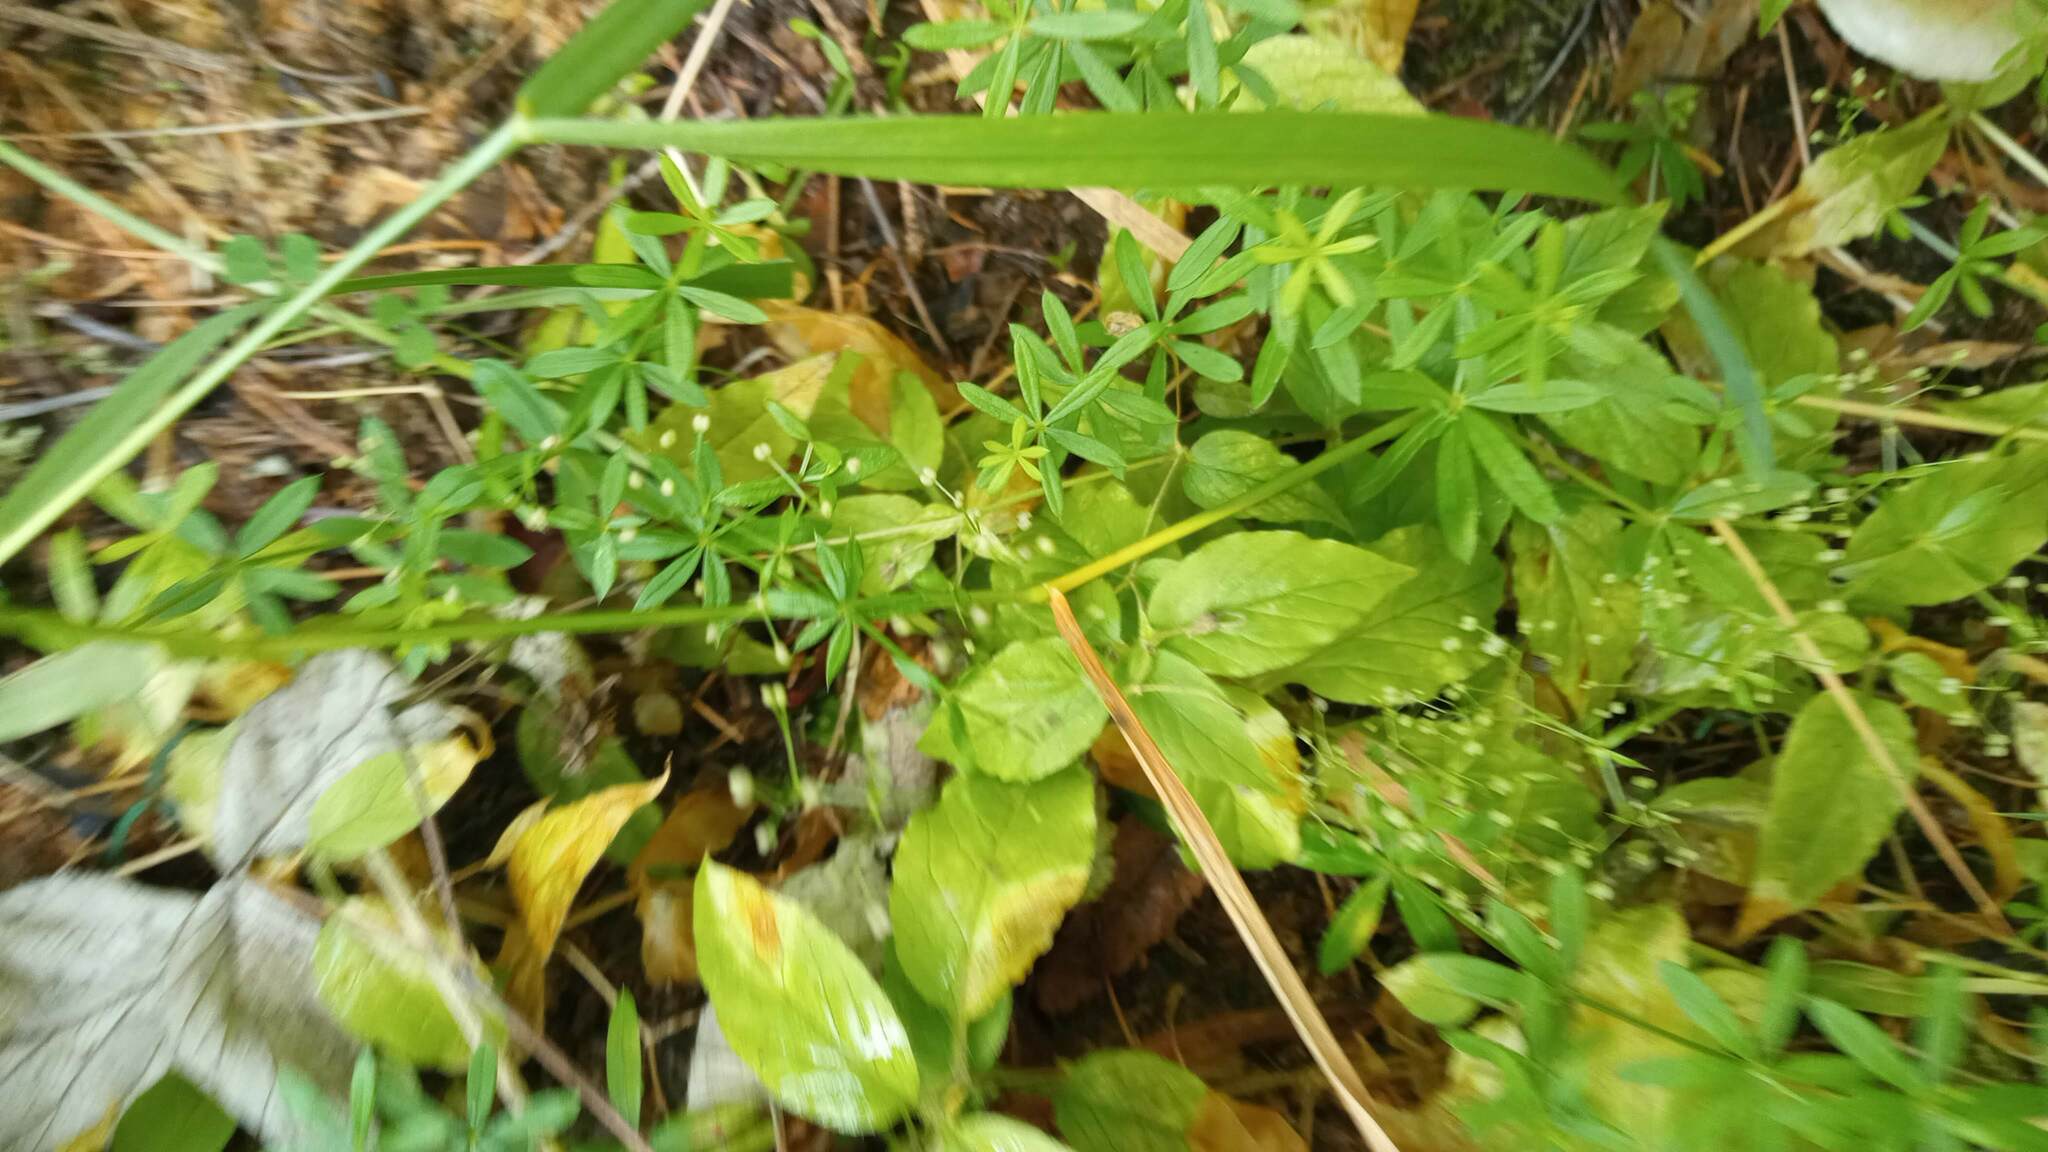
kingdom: Plantae
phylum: Tracheophyta
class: Magnoliopsida
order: Gentianales
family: Rubiaceae
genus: Galium
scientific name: Galium mollugo
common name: Hedge bedstraw
